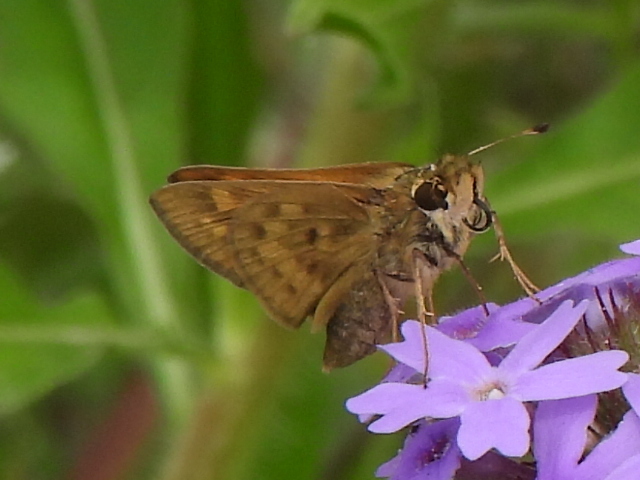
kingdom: Animalia
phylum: Arthropoda
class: Insecta
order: Lepidoptera
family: Hesperiidae
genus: Hylephila
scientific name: Hylephila phyleus
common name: Fiery skipper
